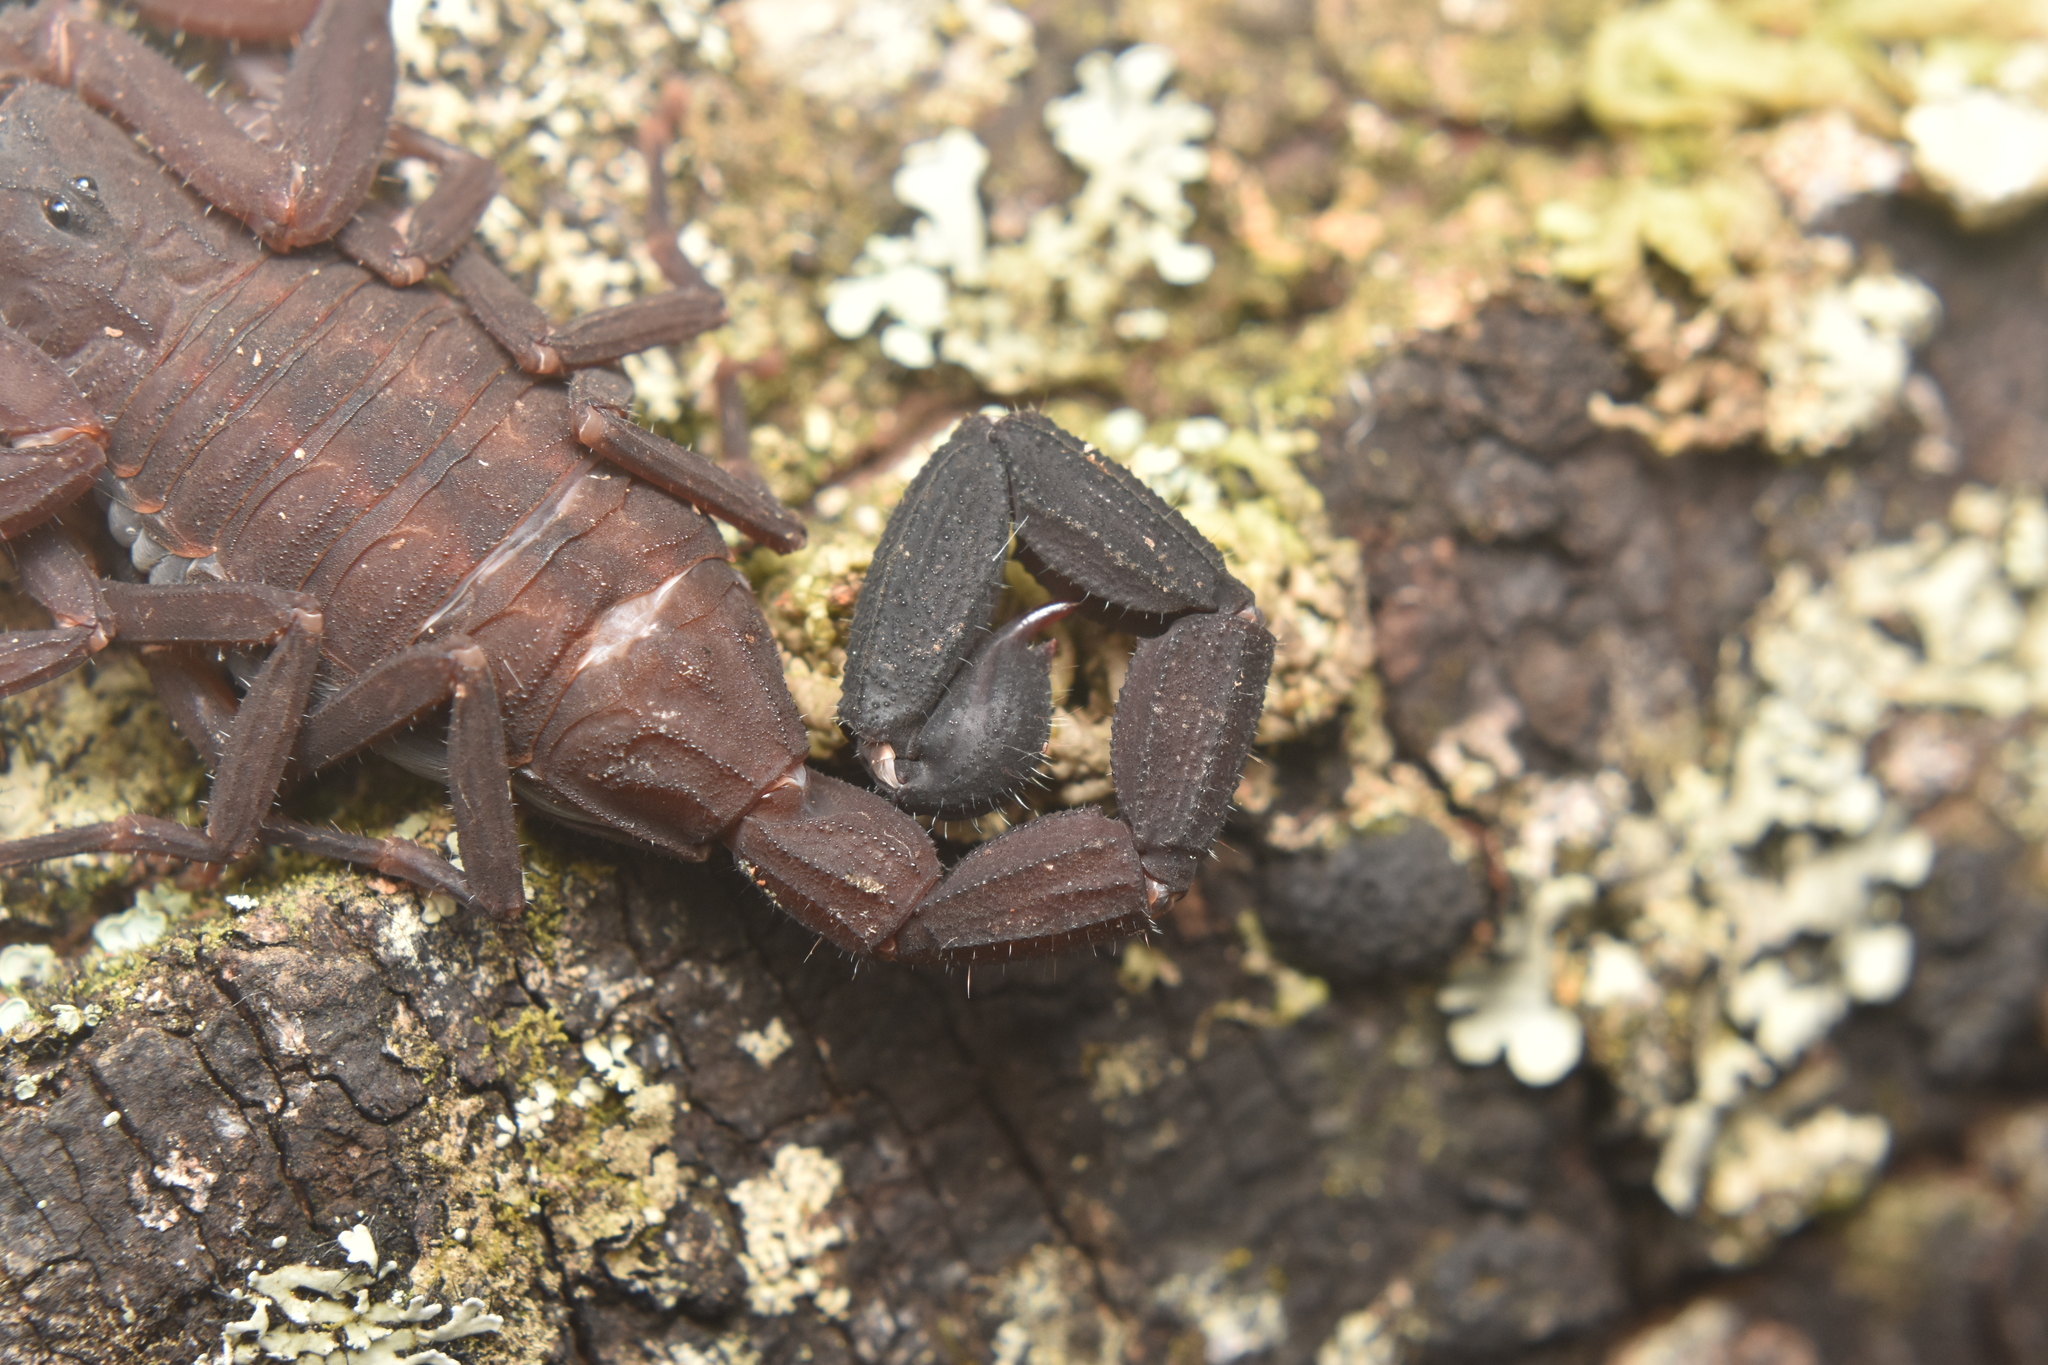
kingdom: Animalia
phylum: Arthropoda
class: Arachnida
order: Scorpiones
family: Buthidae
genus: Tityus
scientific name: Tityus antioquensis
